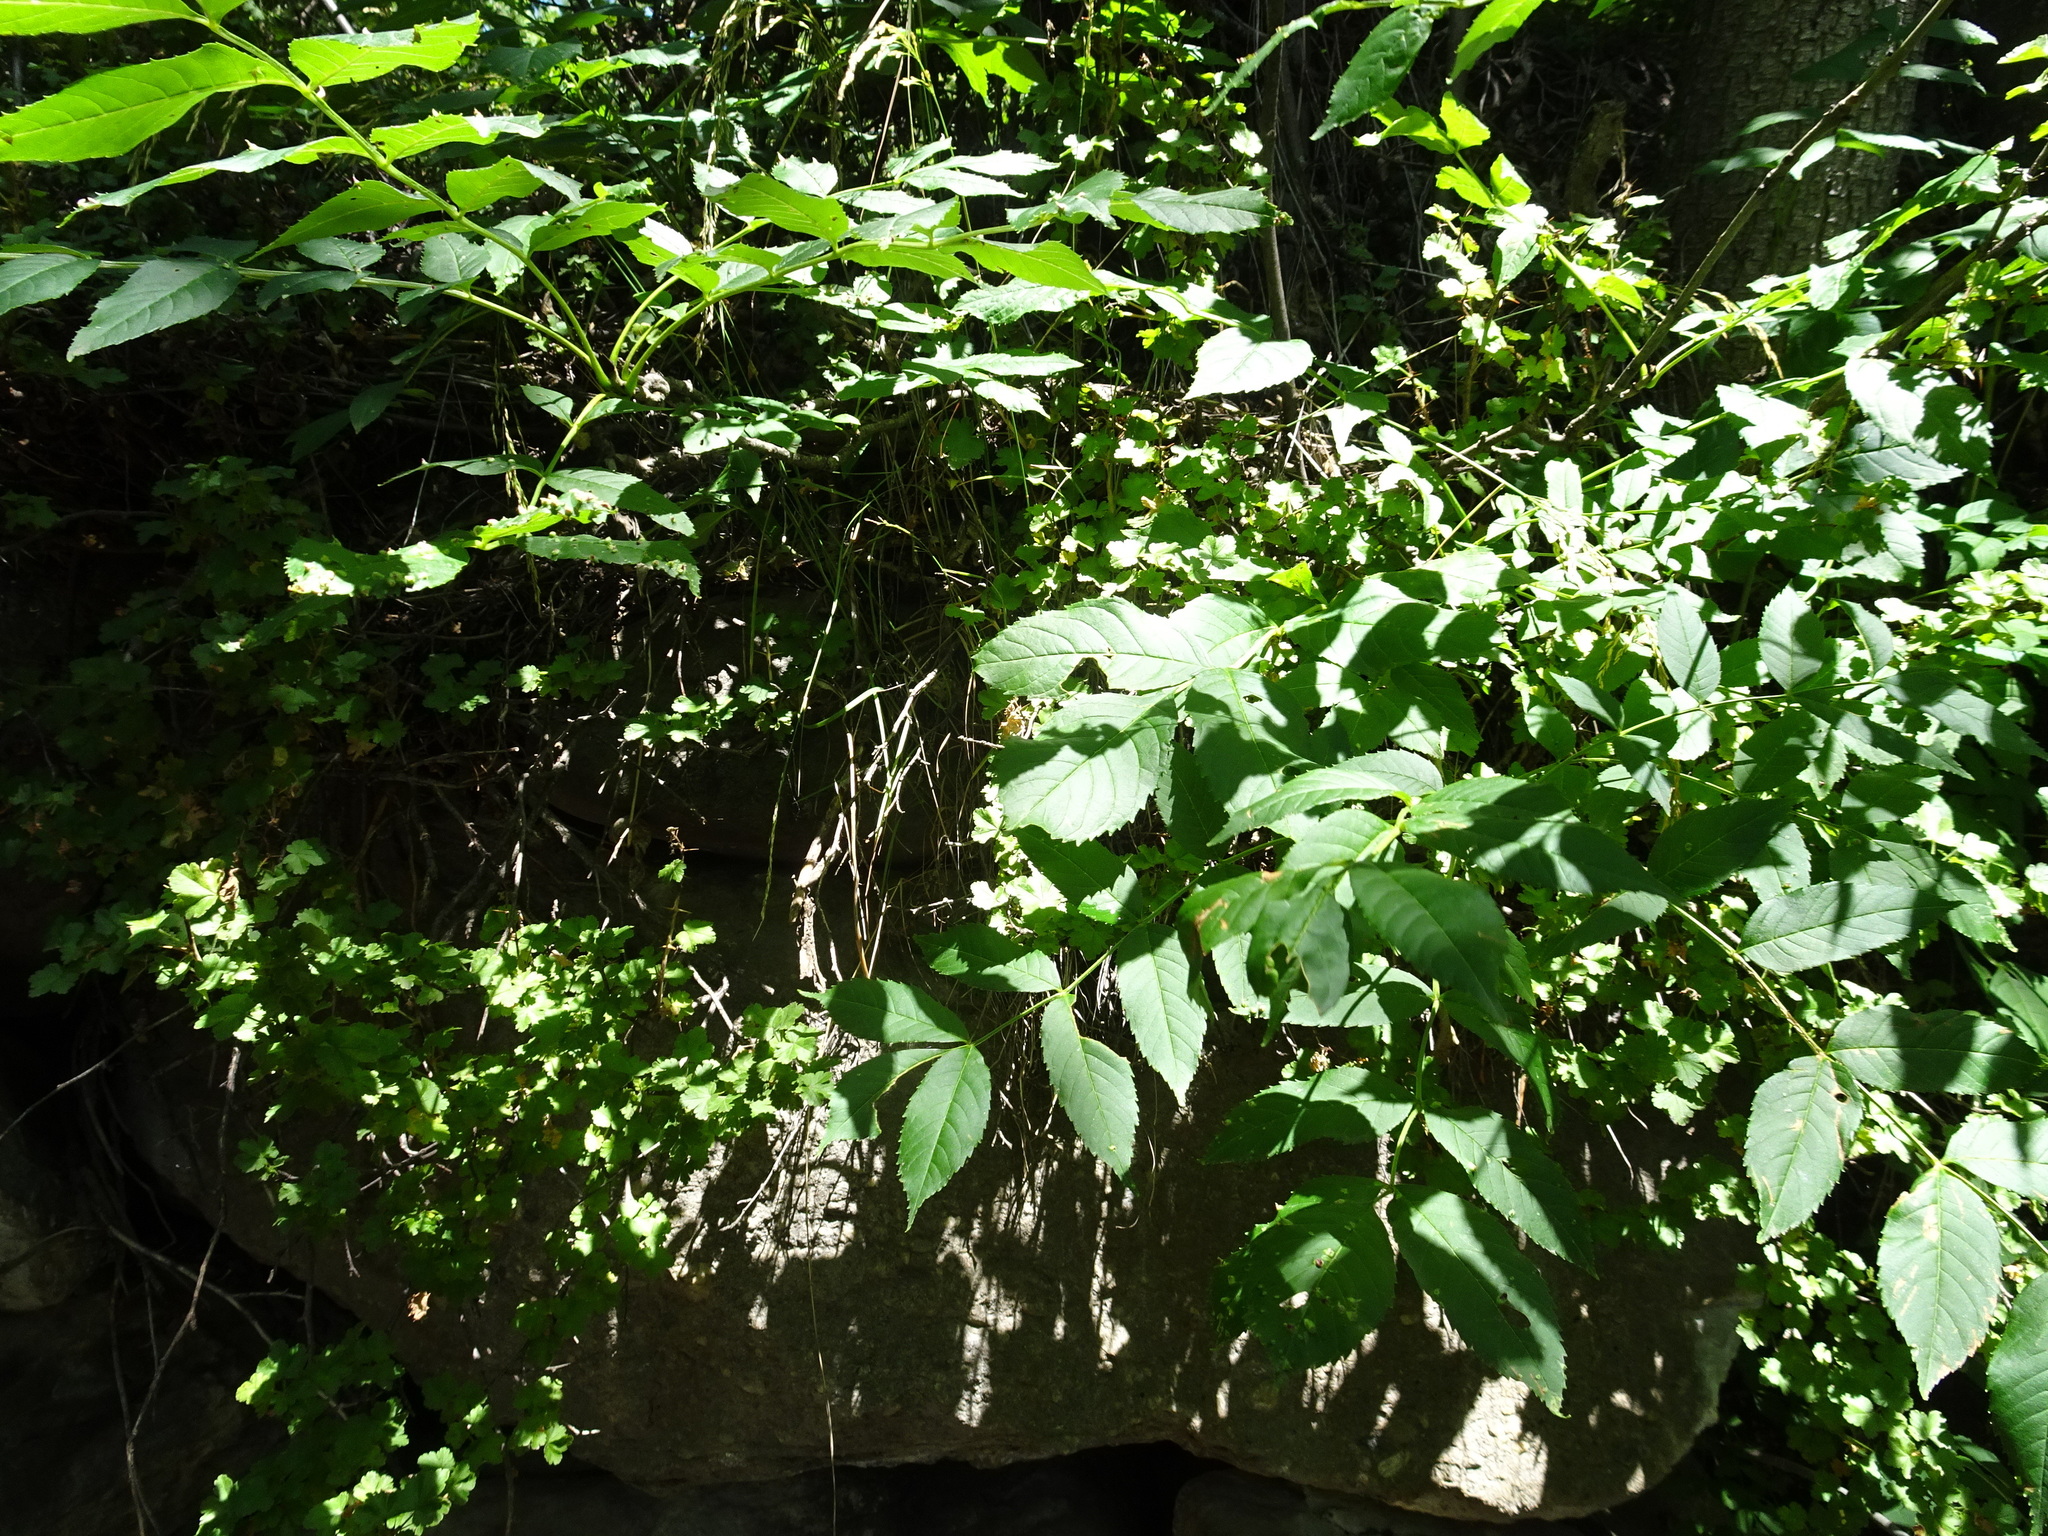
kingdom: Plantae
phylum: Tracheophyta
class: Magnoliopsida
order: Lamiales
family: Oleaceae
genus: Fraxinus
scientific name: Fraxinus excelsior
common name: European ash
